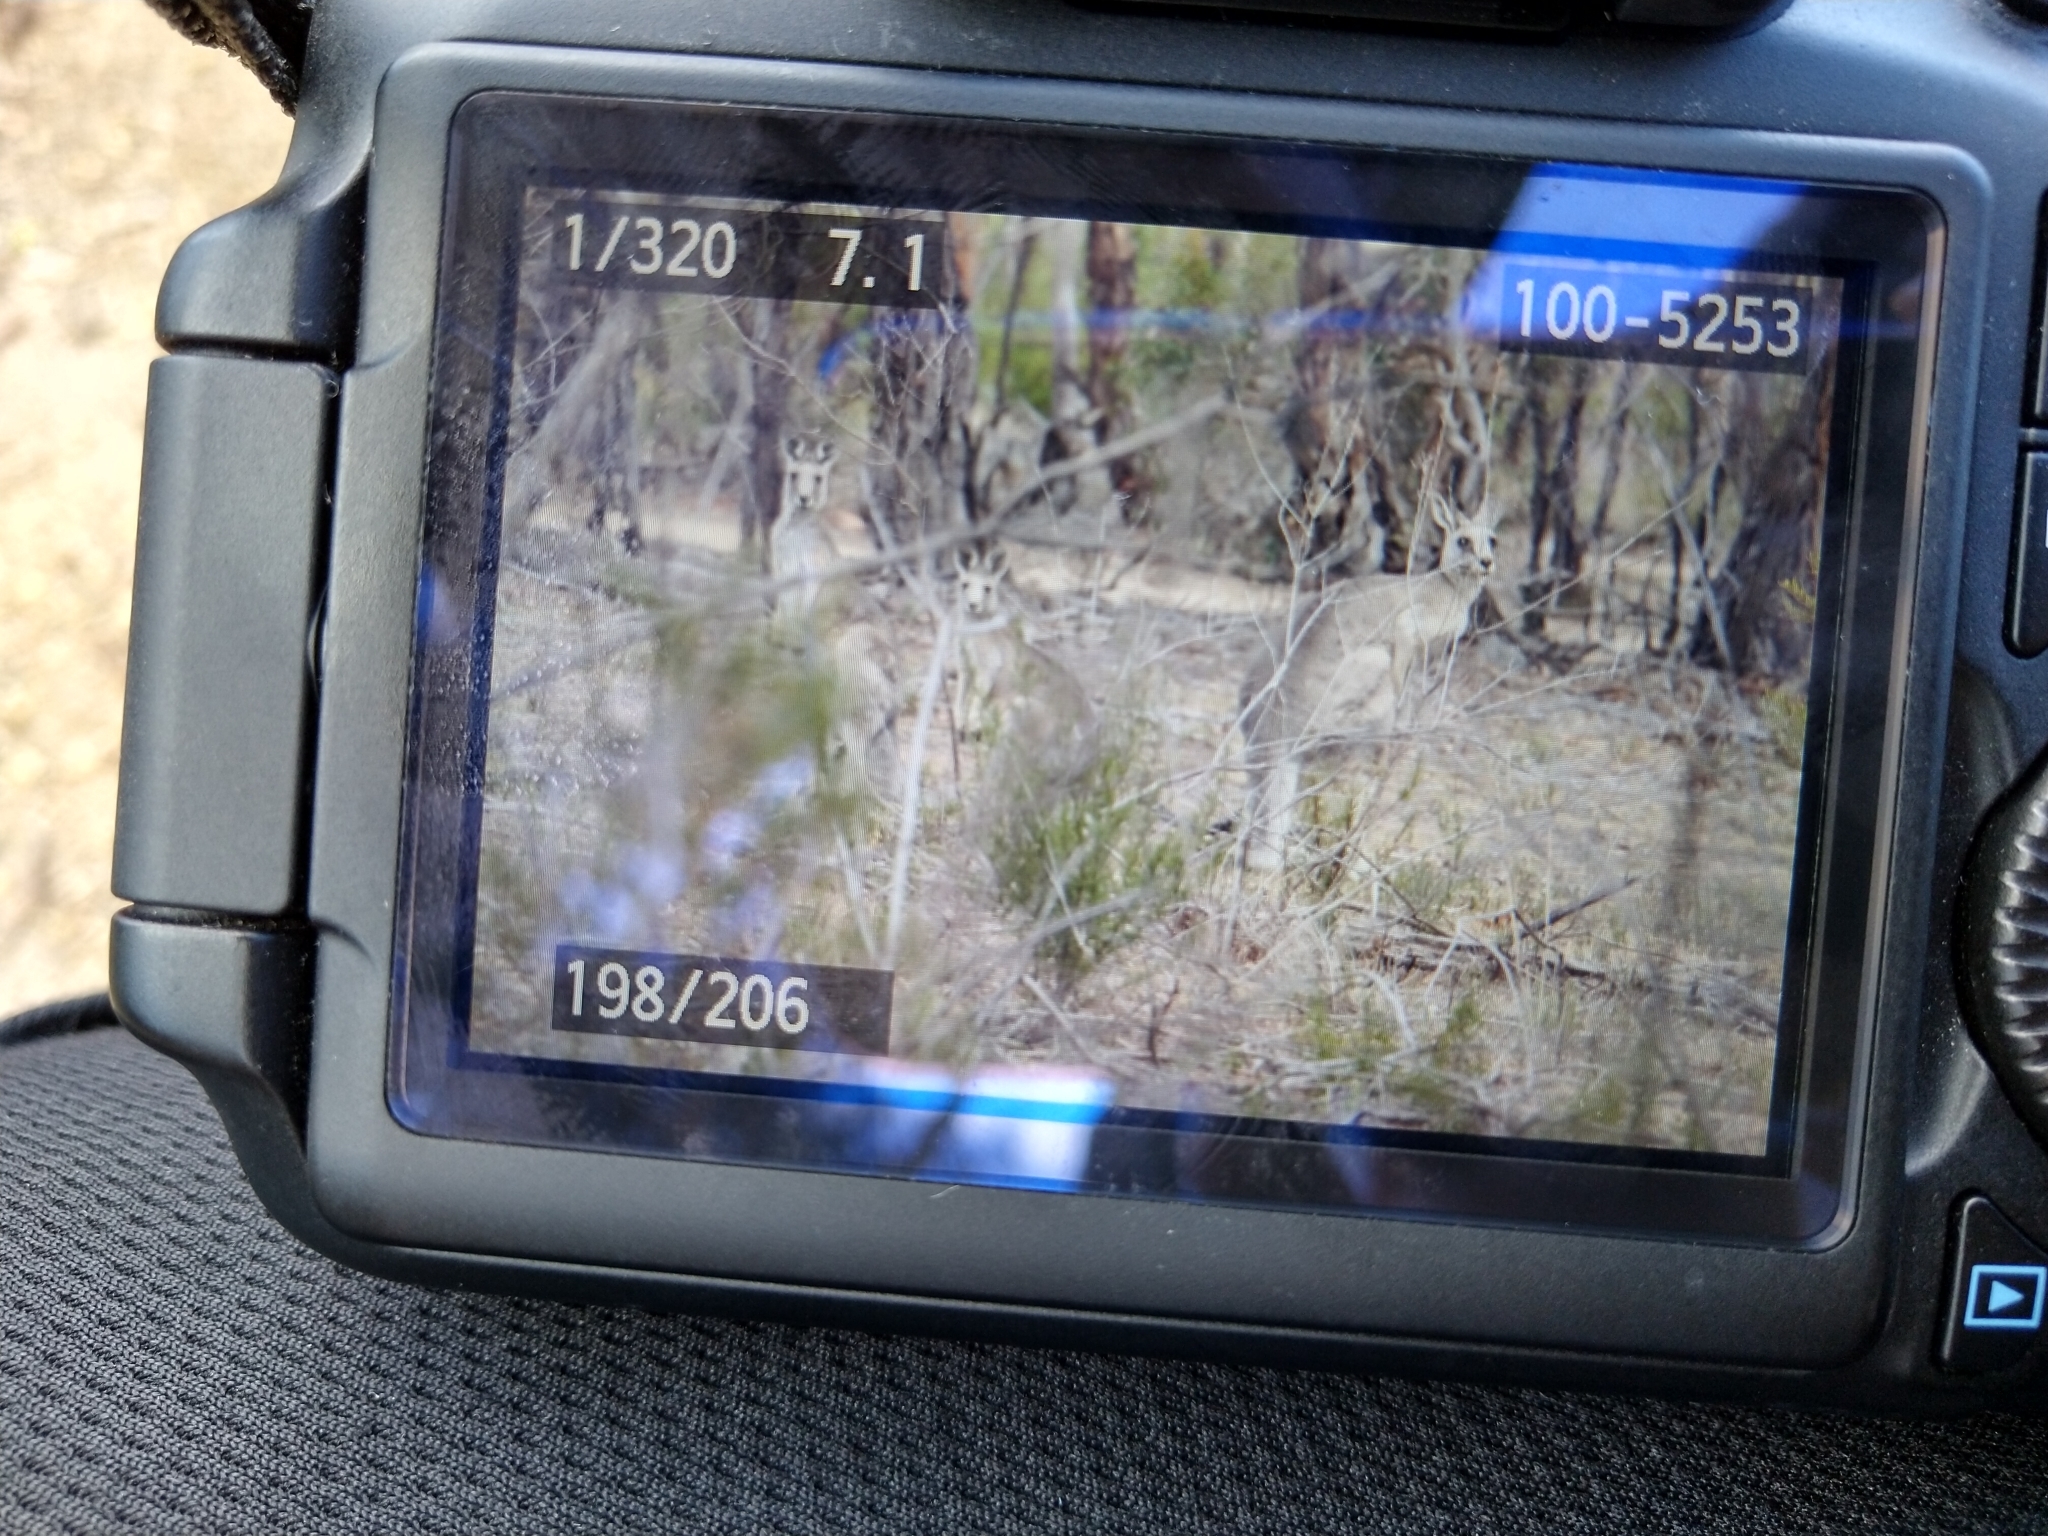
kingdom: Animalia
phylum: Chordata
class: Mammalia
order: Diprotodontia
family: Macropodidae
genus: Macropus
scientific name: Macropus giganteus
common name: Eastern grey kangaroo
